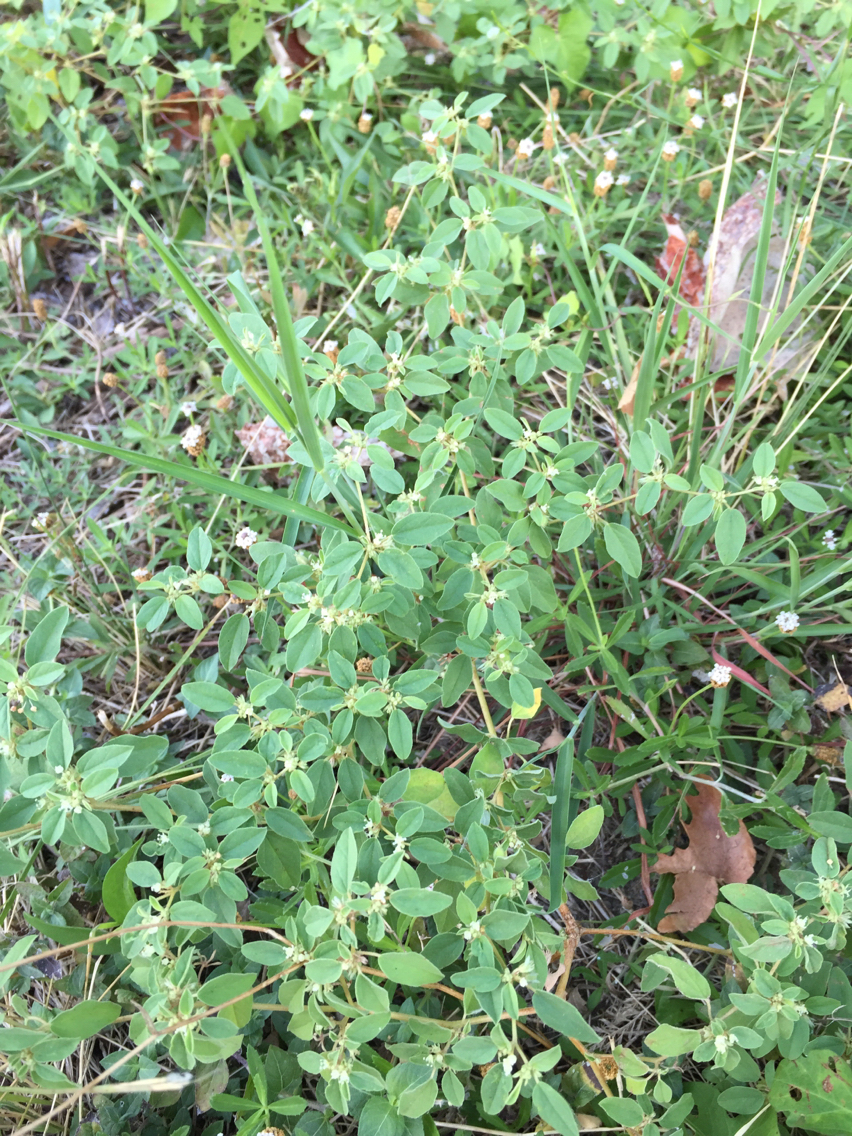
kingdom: Plantae
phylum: Tracheophyta
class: Magnoliopsida
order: Malpighiales
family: Euphorbiaceae
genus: Croton
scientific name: Croton monanthogynus
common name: One-seed croton
